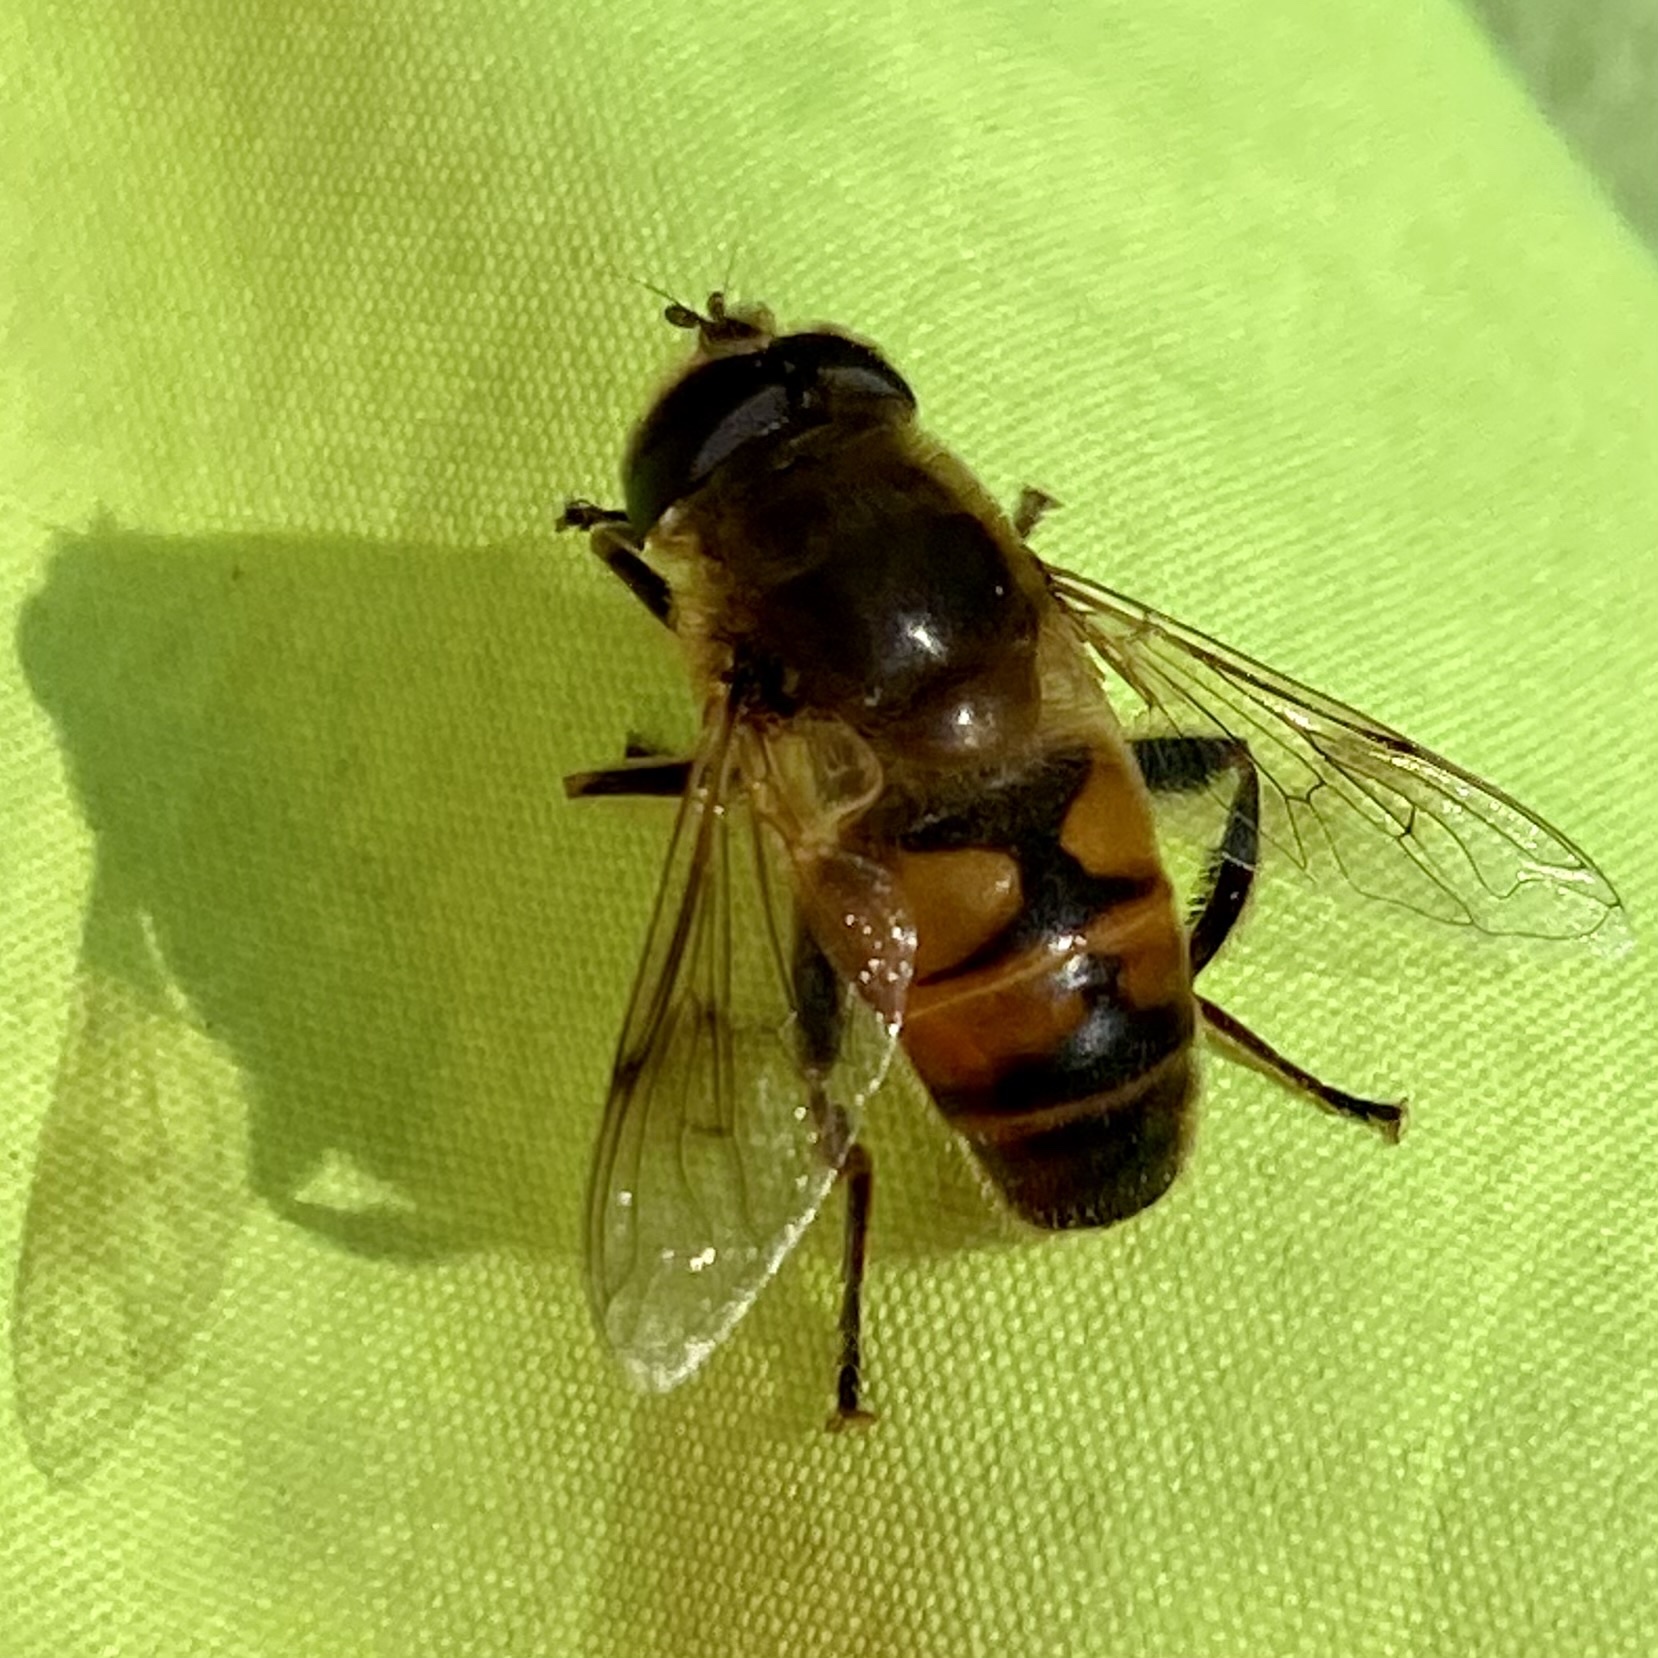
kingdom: Animalia
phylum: Arthropoda
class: Insecta
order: Diptera
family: Syrphidae
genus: Eristalis
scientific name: Eristalis tenax
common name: Drone fly
